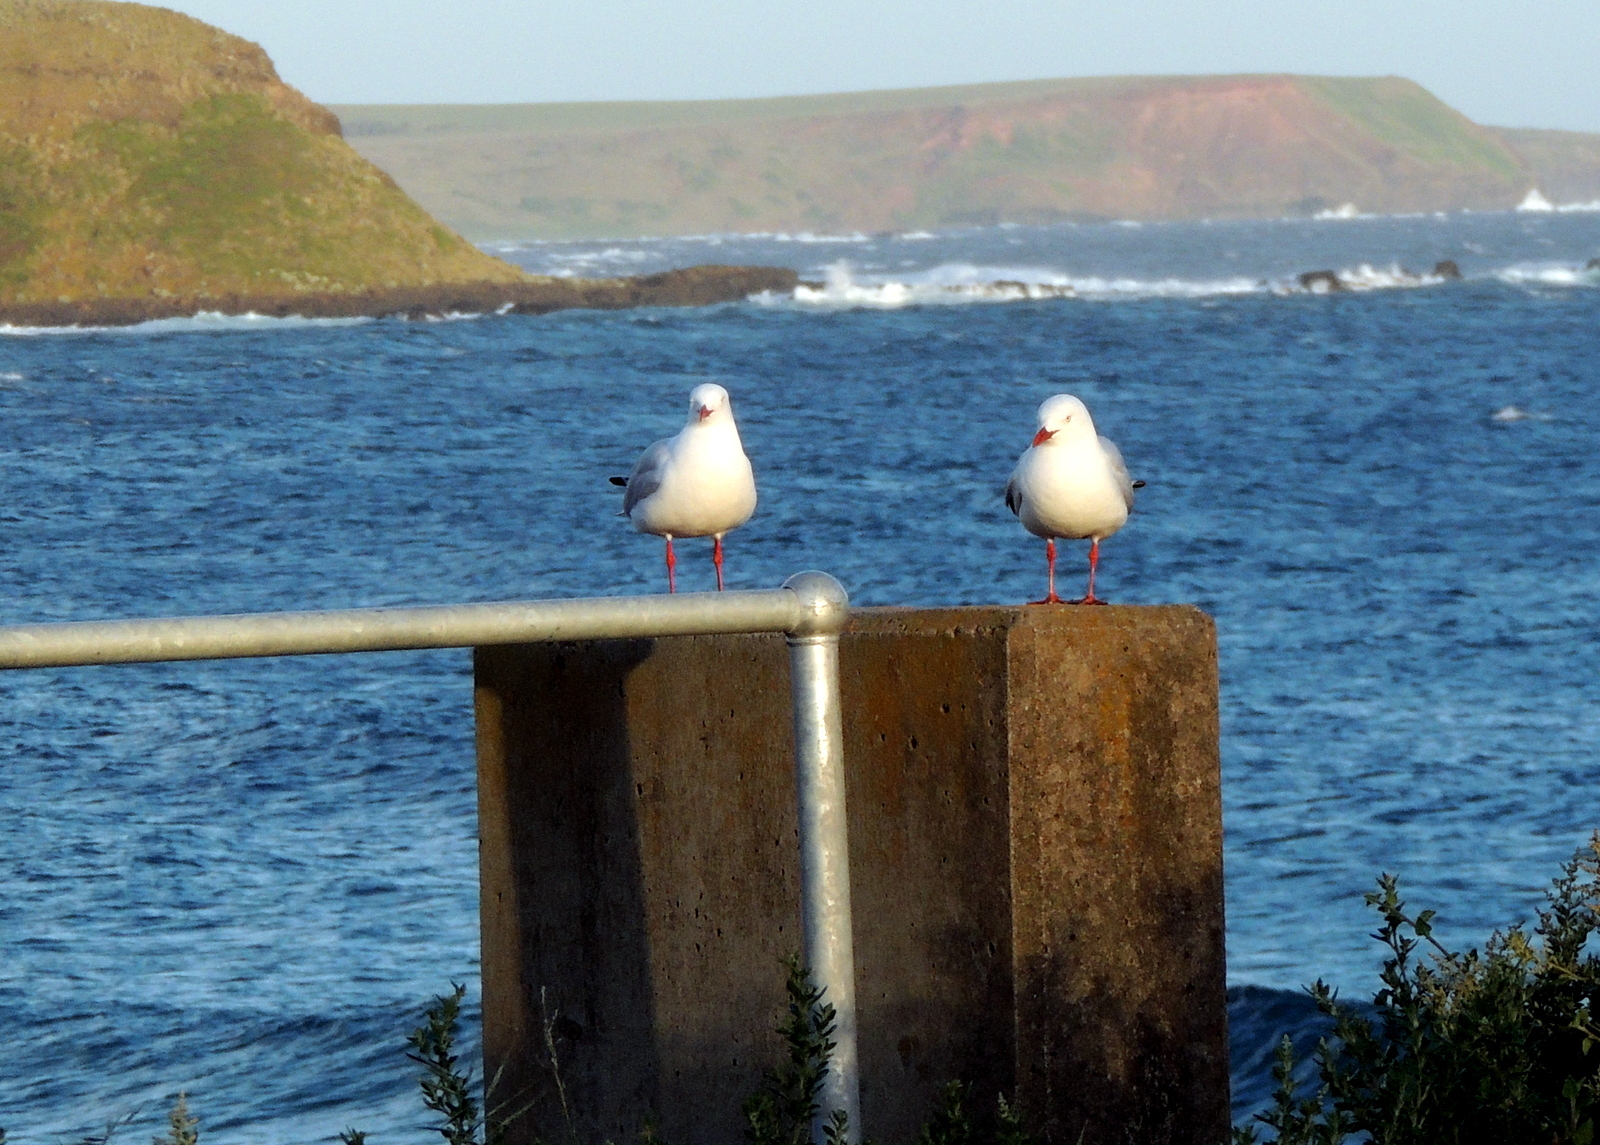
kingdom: Animalia
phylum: Chordata
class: Aves
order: Charadriiformes
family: Laridae
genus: Chroicocephalus
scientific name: Chroicocephalus novaehollandiae
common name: Silver gull
